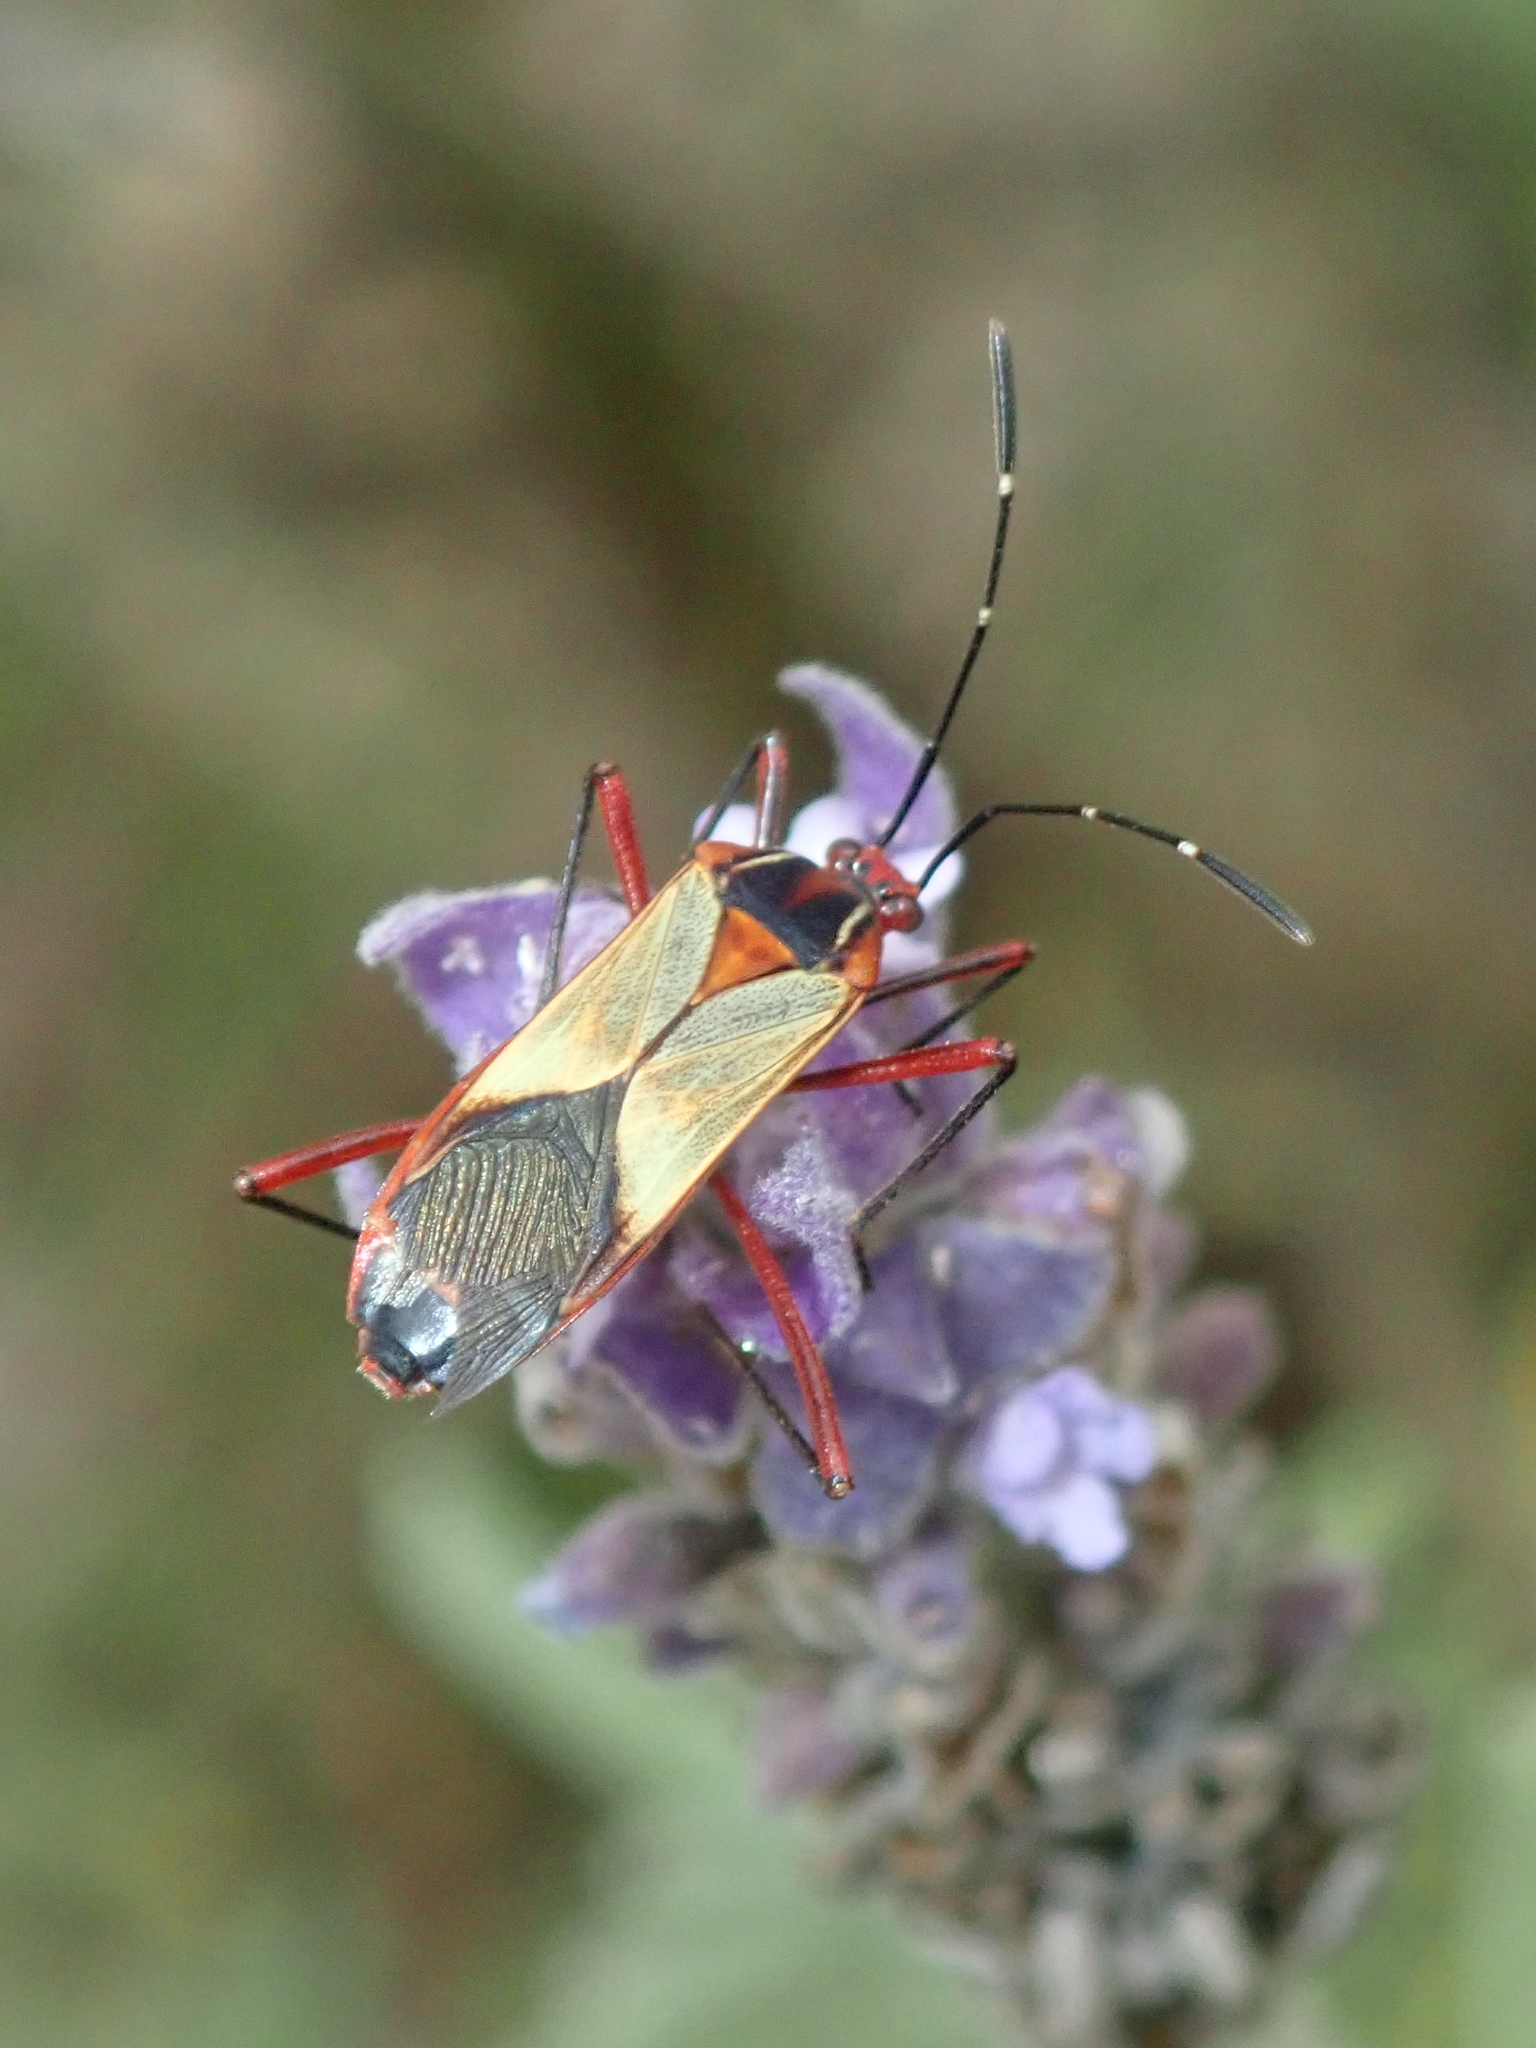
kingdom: Animalia
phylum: Arthropoda
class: Insecta
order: Hemiptera
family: Coreidae
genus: Hypselonotus
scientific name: Hypselonotus interruptus
